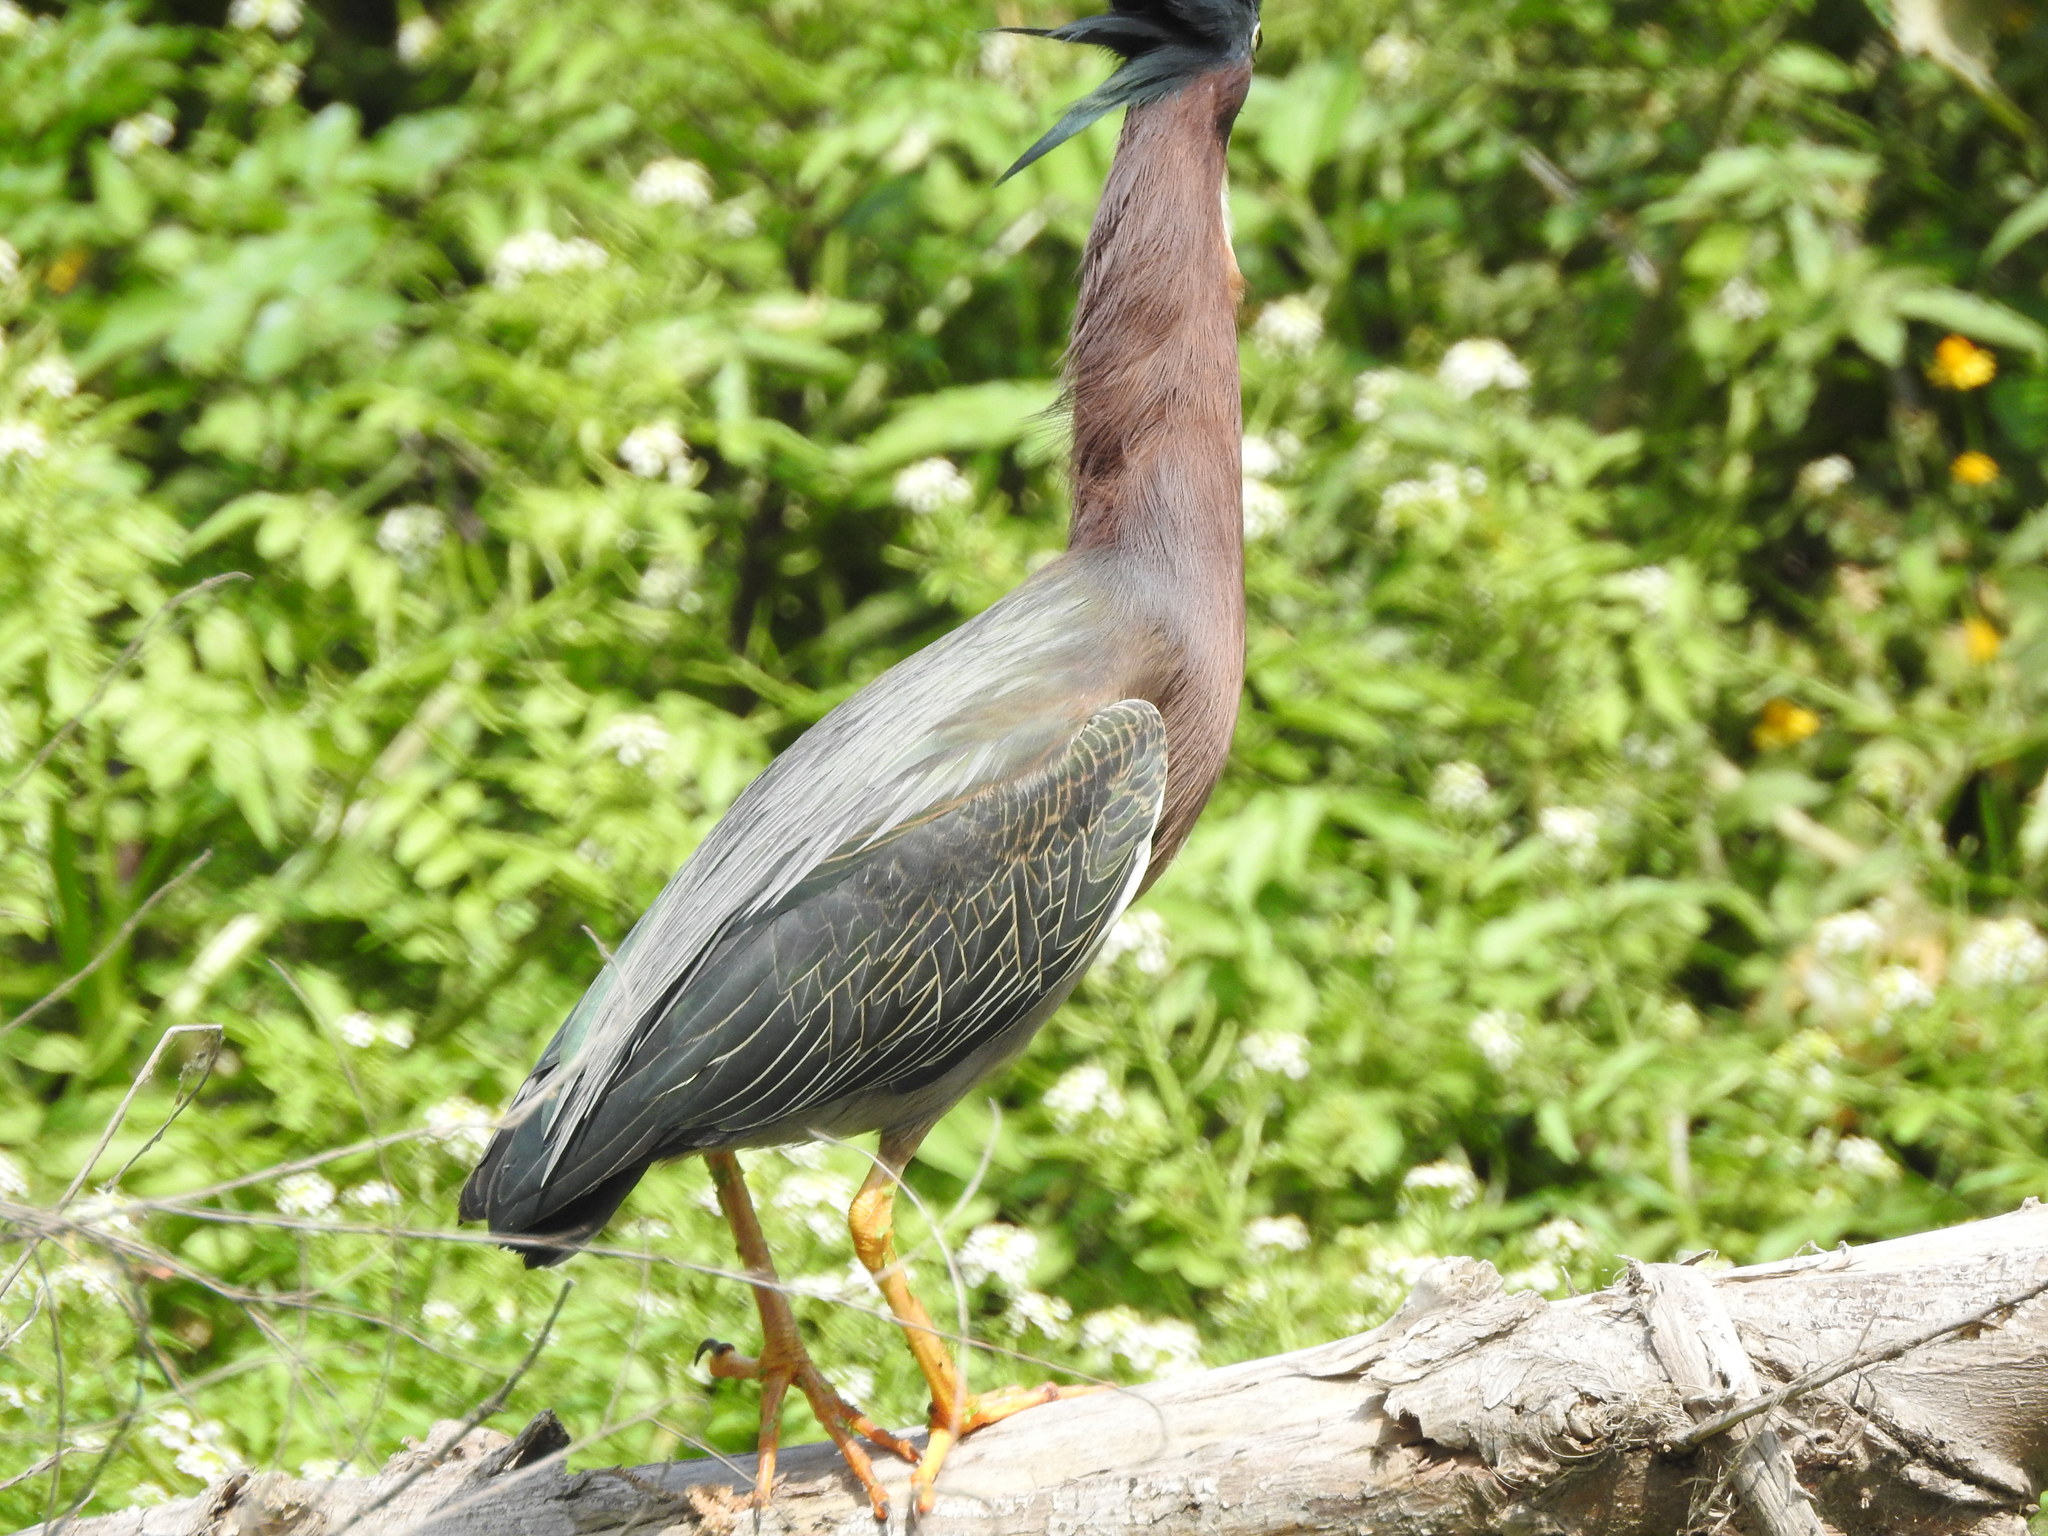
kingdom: Animalia
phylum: Chordata
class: Aves
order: Pelecaniformes
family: Ardeidae
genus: Butorides
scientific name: Butorides virescens
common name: Green heron
